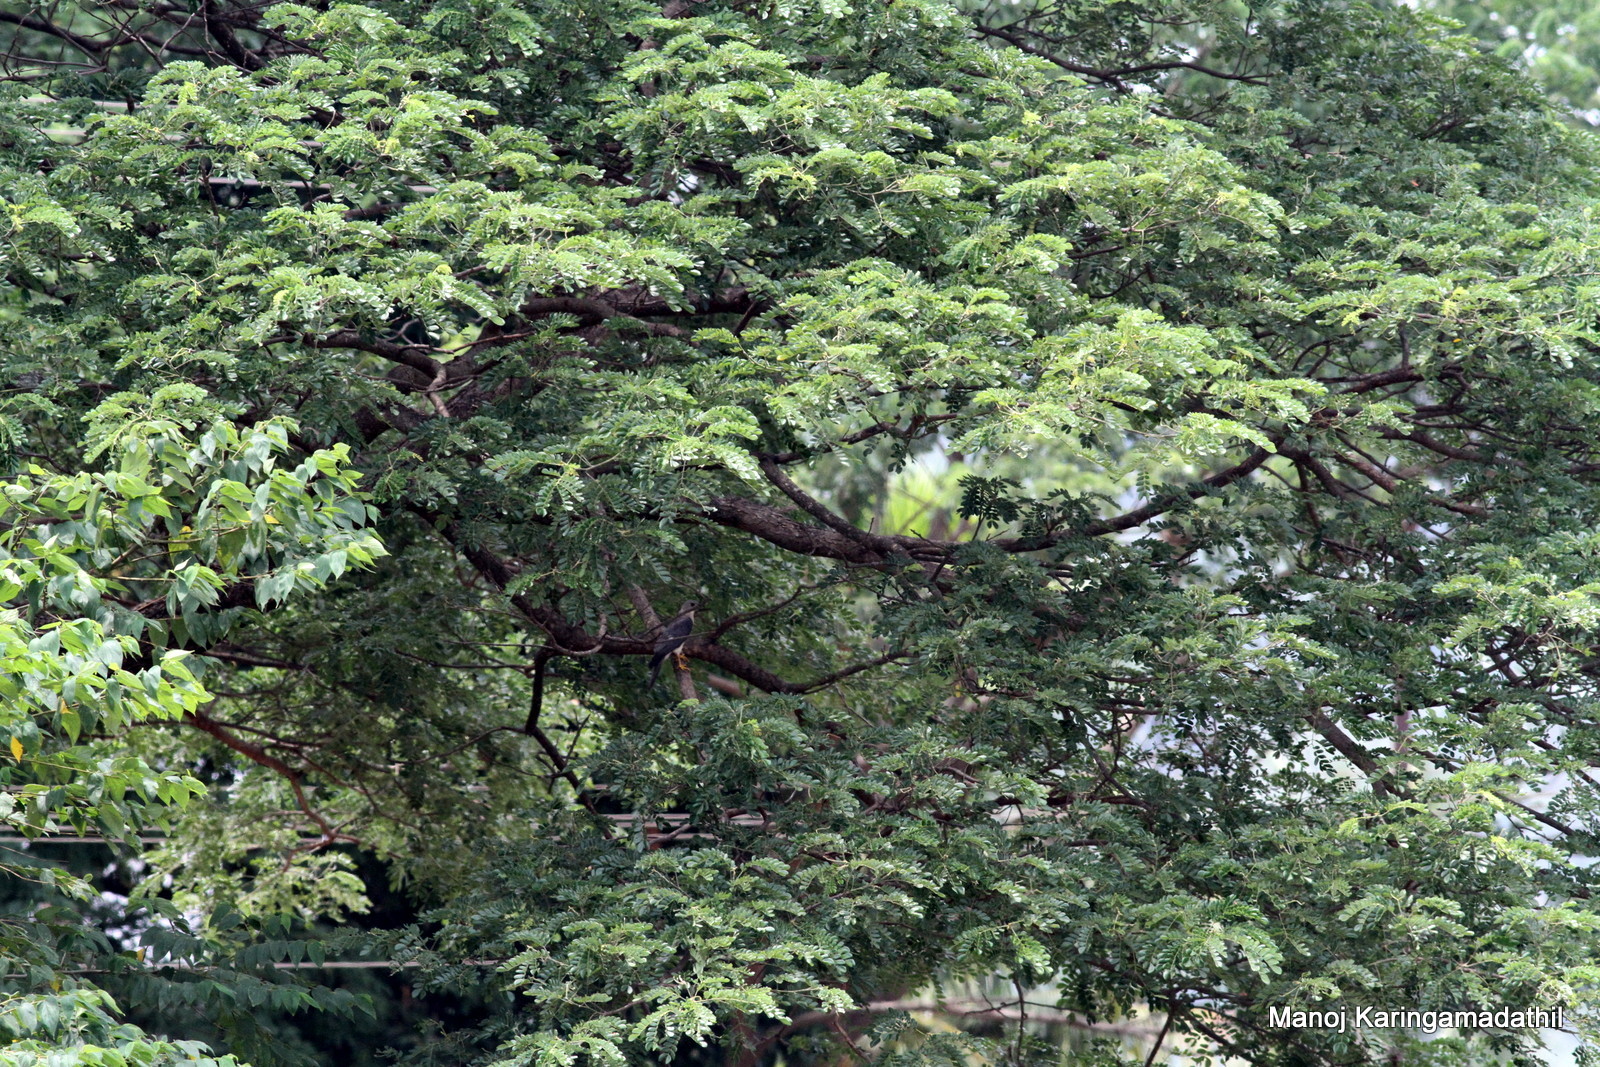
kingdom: Animalia
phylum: Chordata
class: Aves
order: Accipitriformes
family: Accipitridae
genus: Accipiter
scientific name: Accipiter badius
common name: Shikra
